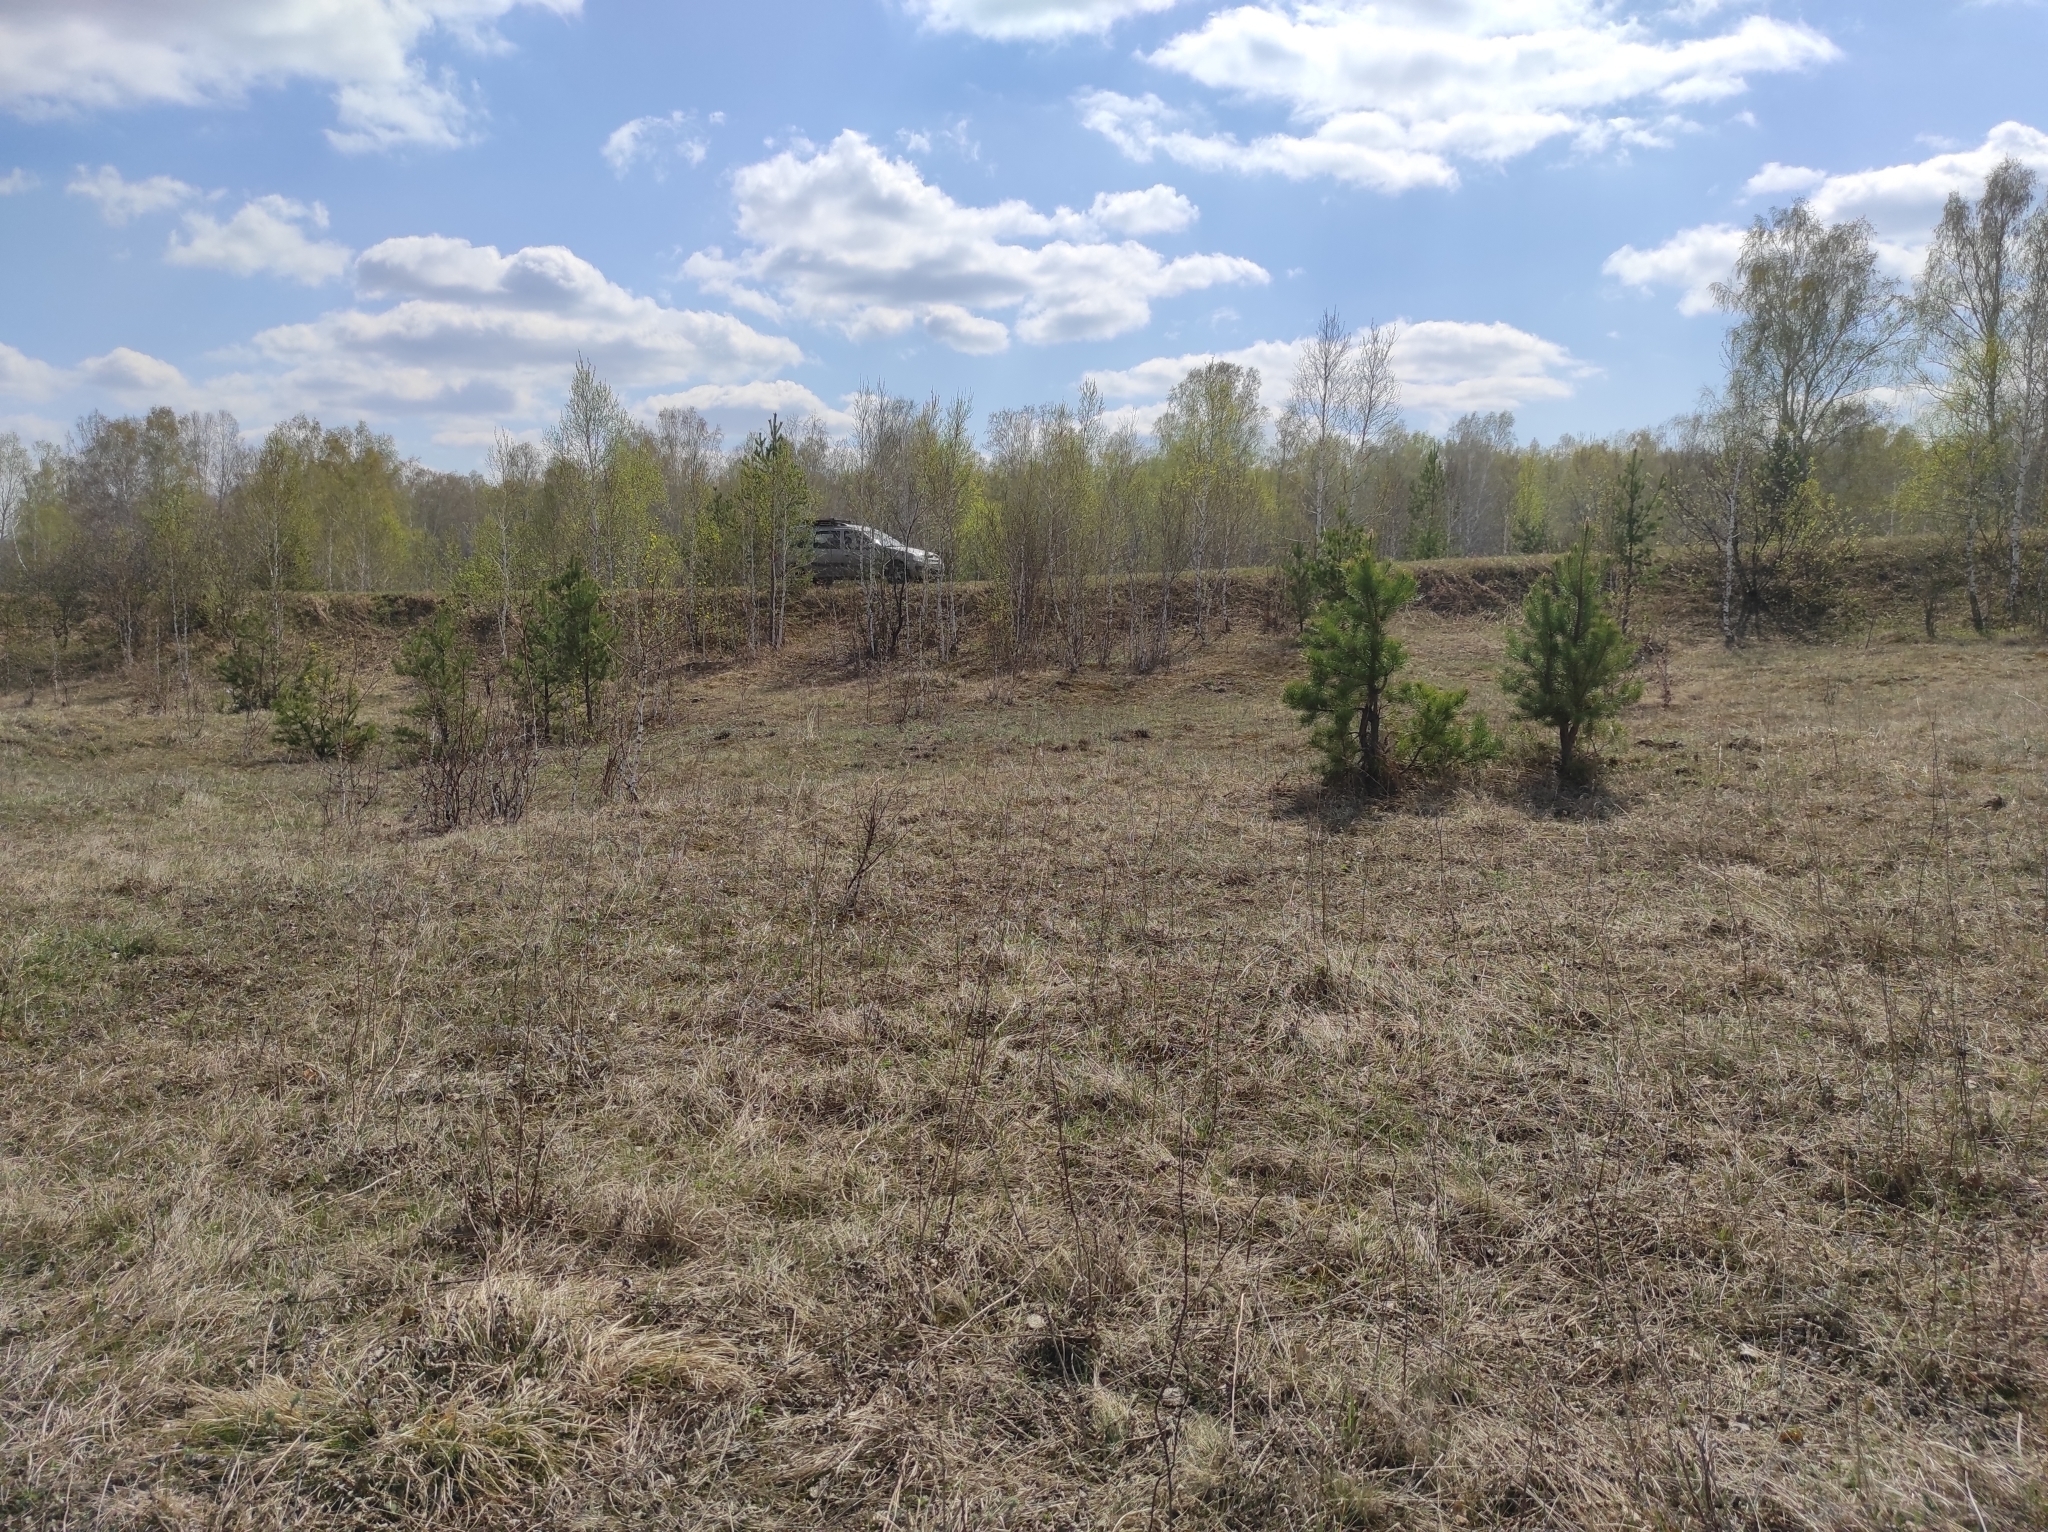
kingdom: Plantae
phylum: Tracheophyta
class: Pinopsida
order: Pinales
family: Pinaceae
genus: Pinus
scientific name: Pinus sylvestris
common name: Scots pine
